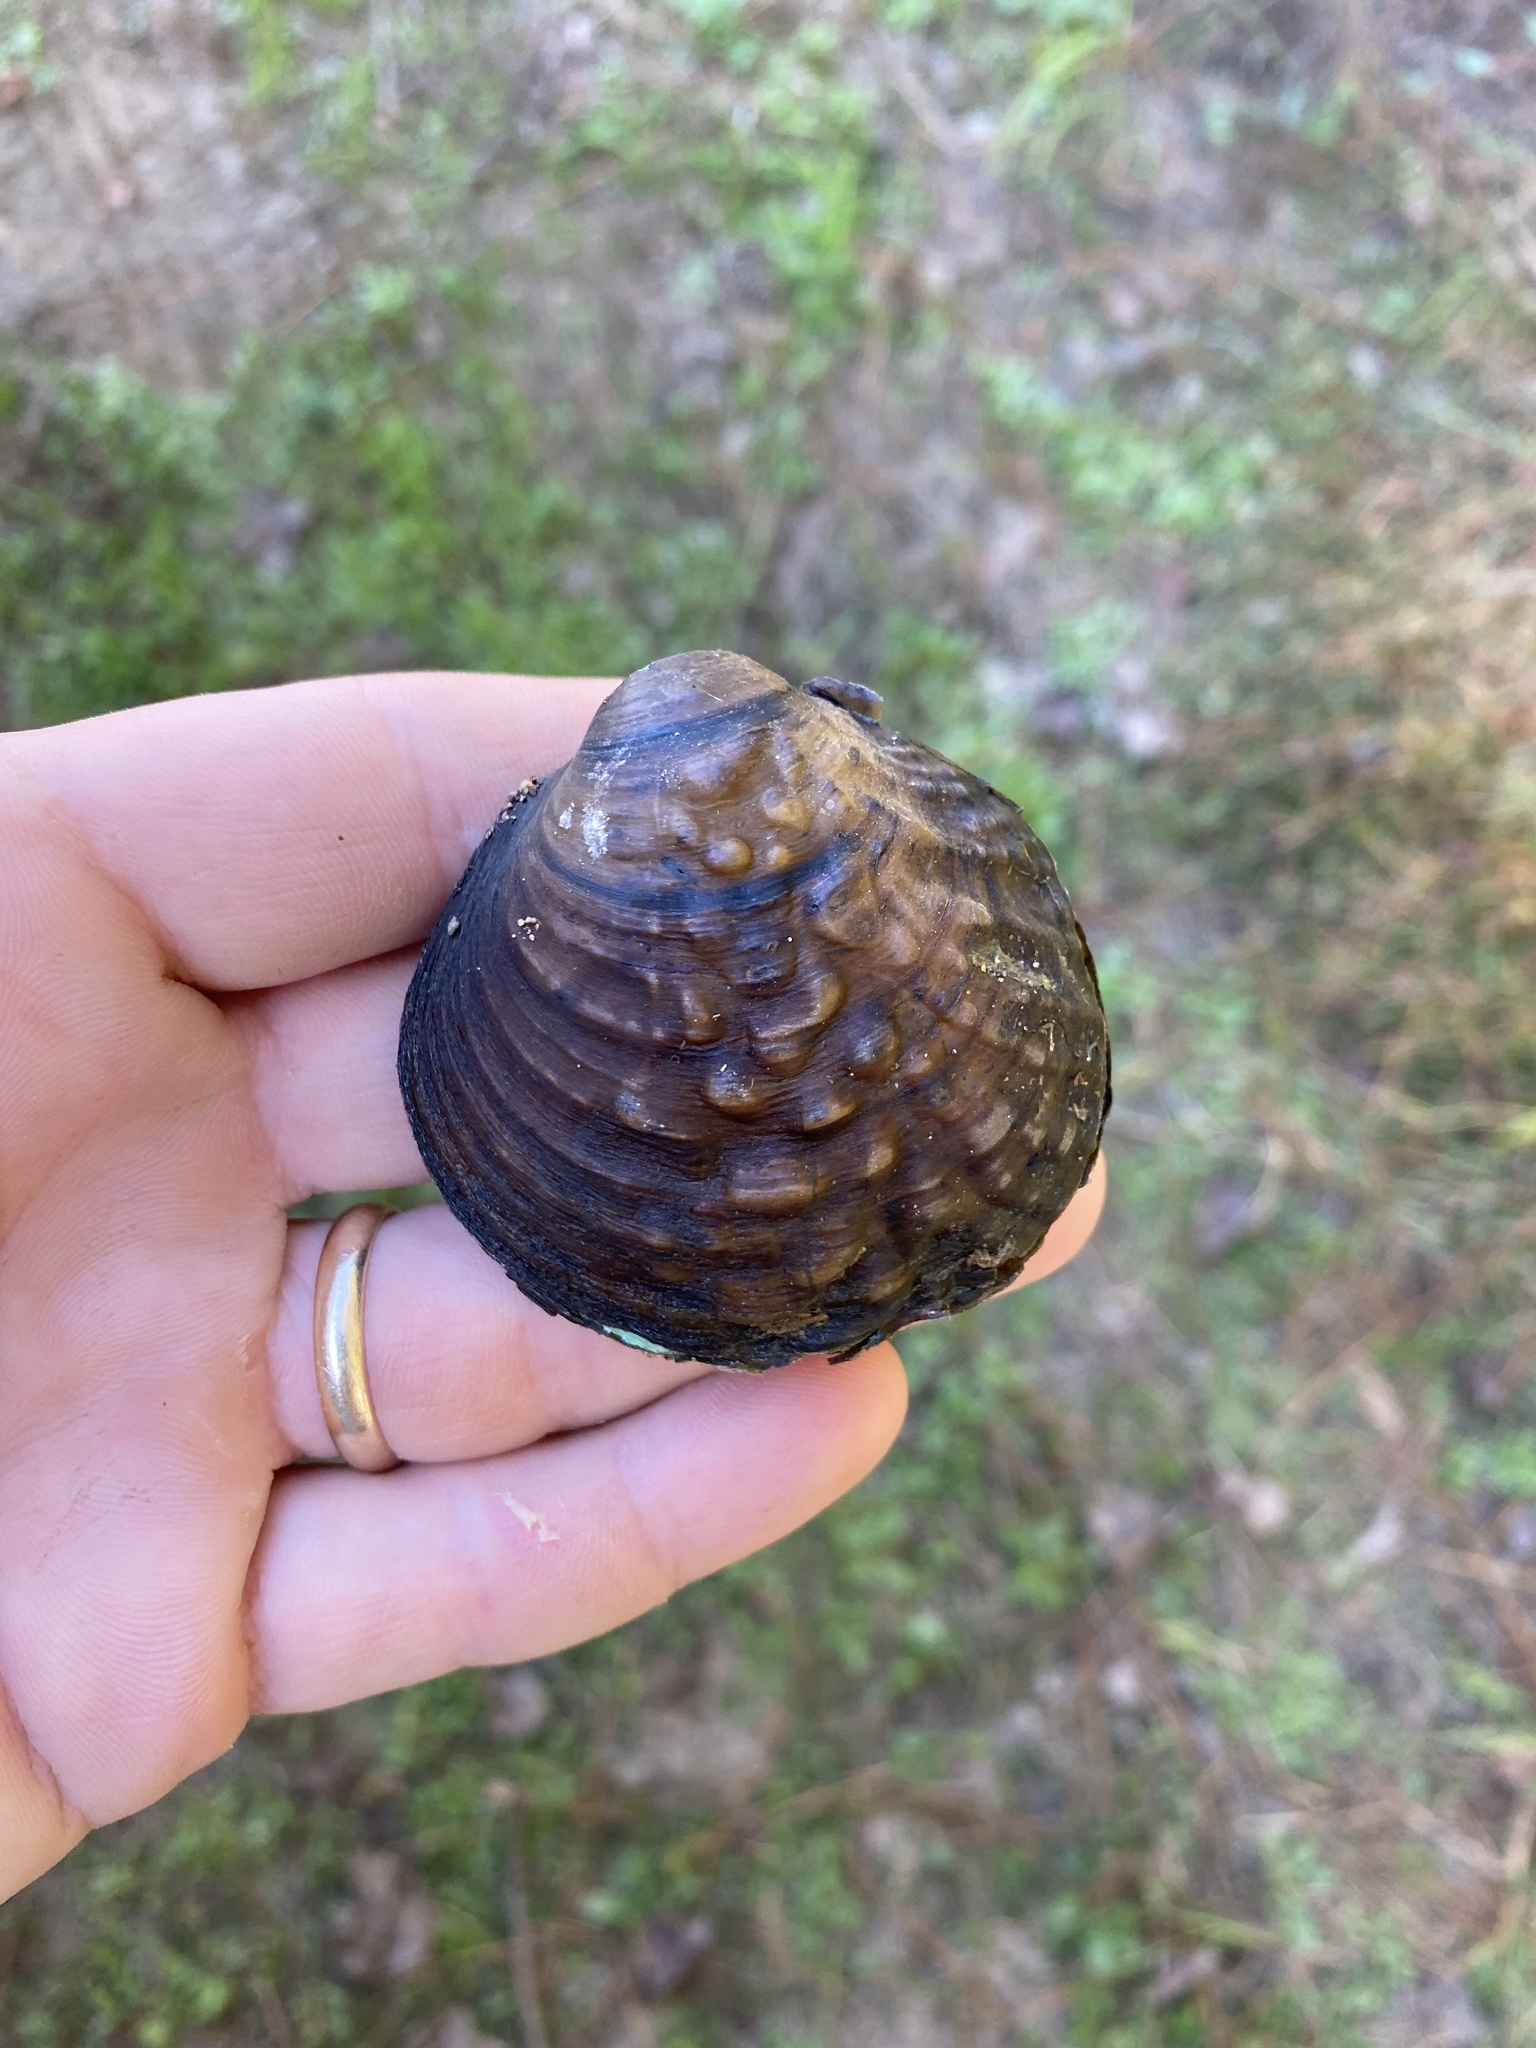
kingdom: Animalia
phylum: Mollusca
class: Bivalvia
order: Unionida
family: Unionidae
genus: Cyclonaias
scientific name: Cyclonaias kieneriana
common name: Coosa orb
